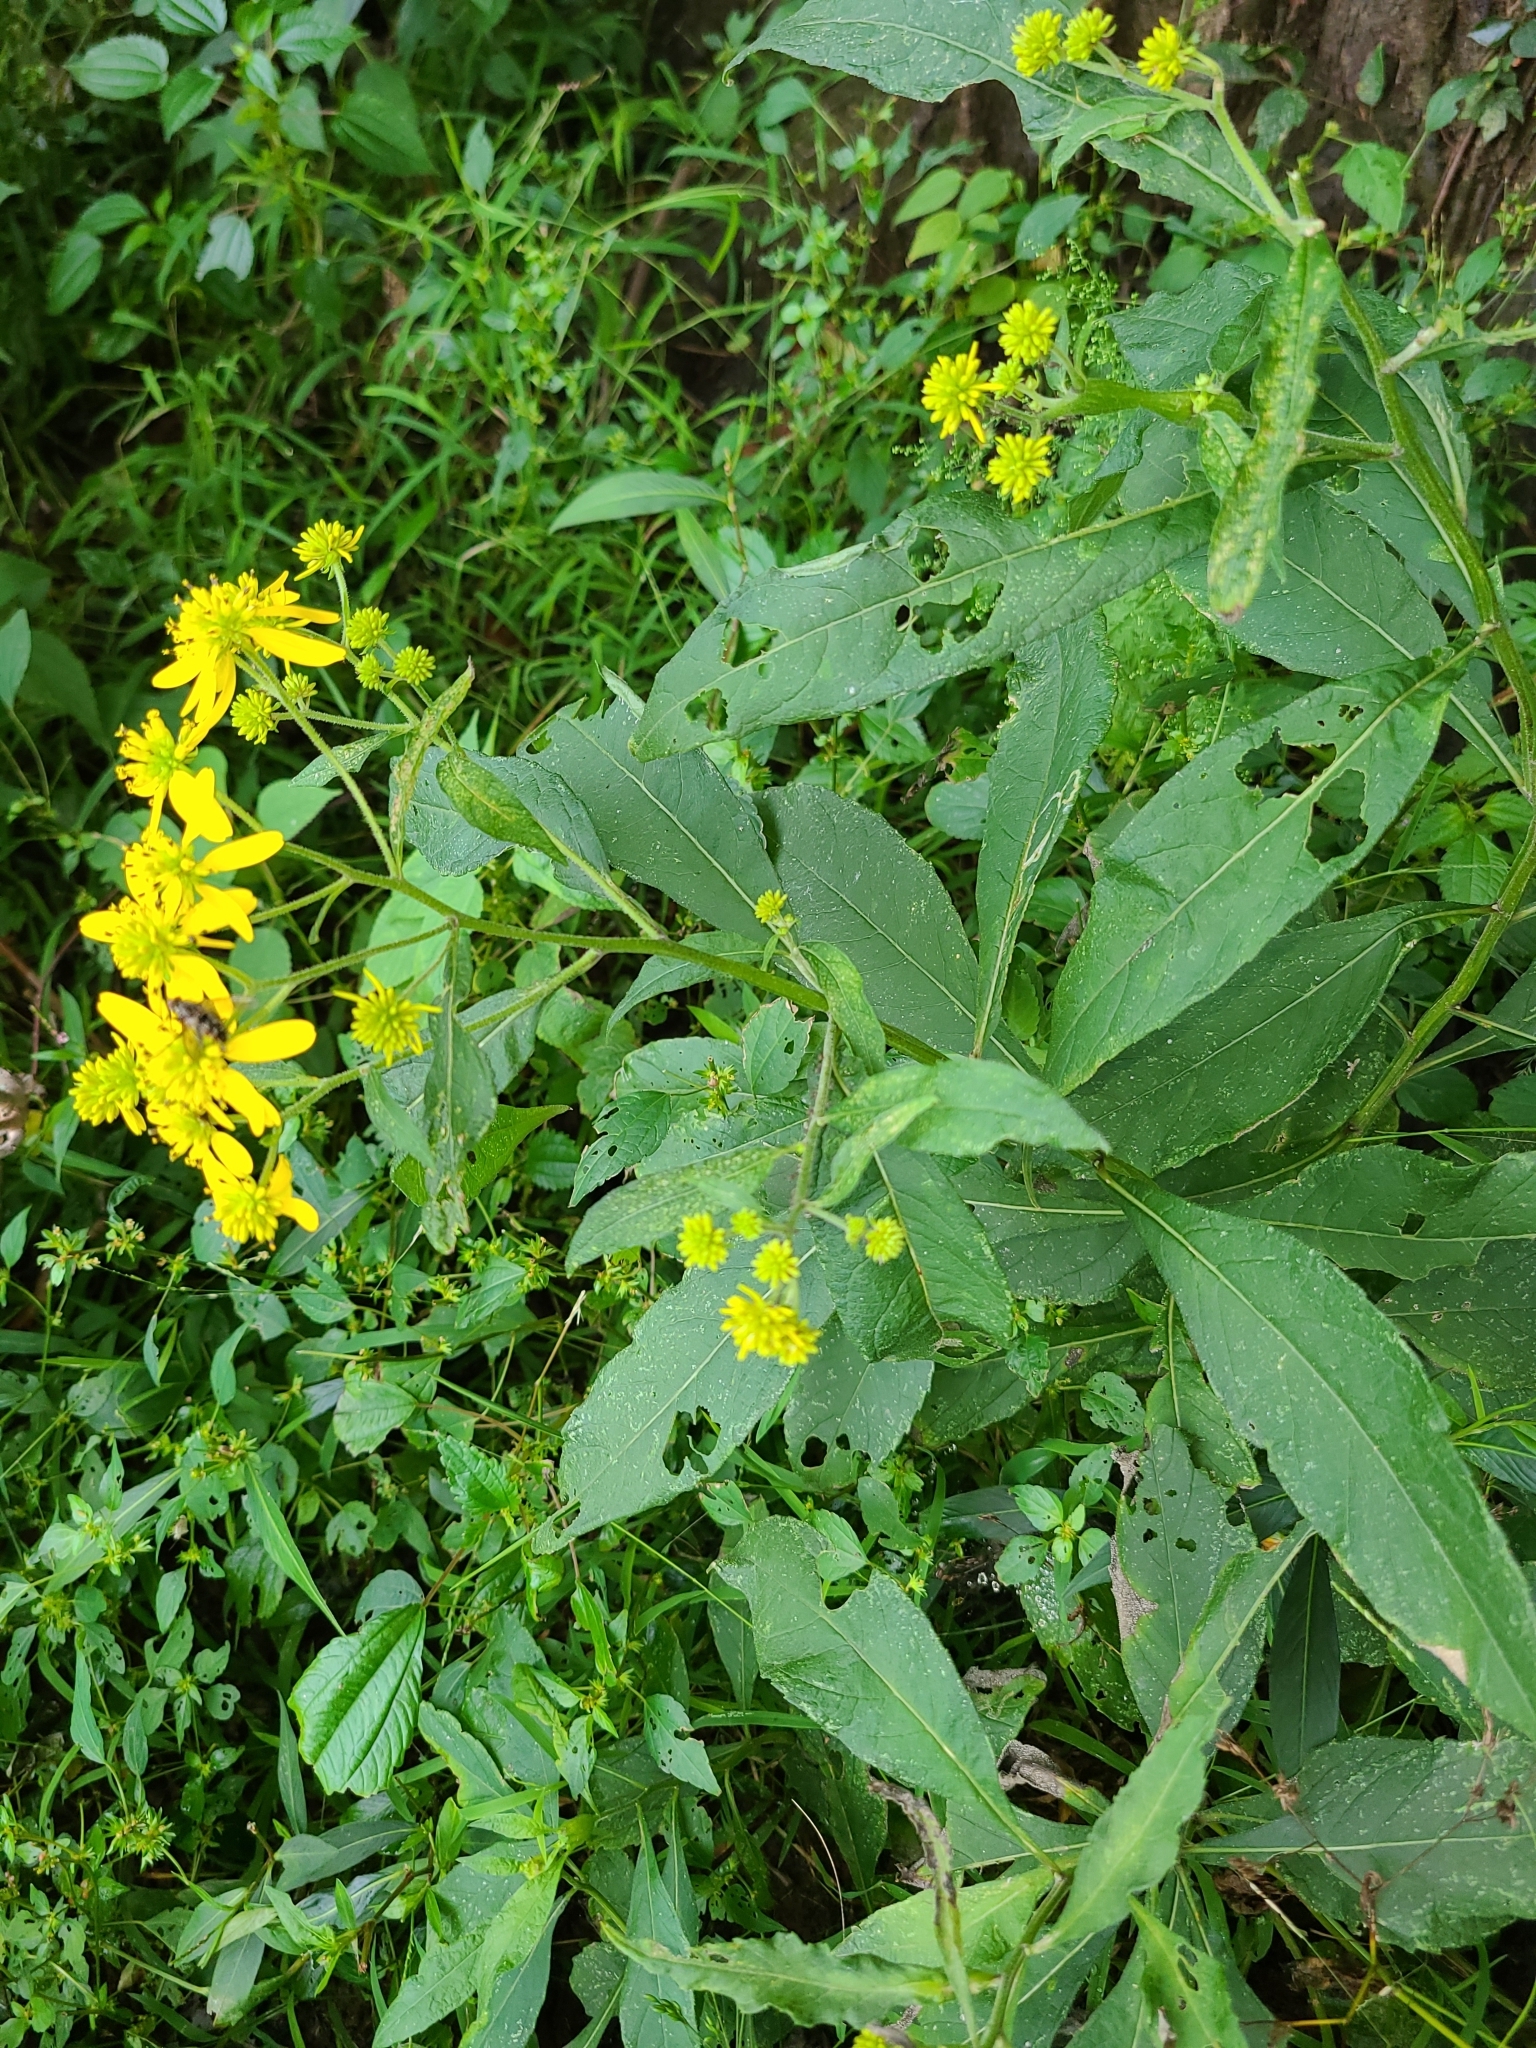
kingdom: Plantae
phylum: Tracheophyta
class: Magnoliopsida
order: Asterales
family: Asteraceae
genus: Verbesina
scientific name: Verbesina alternifolia
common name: Wingstem
